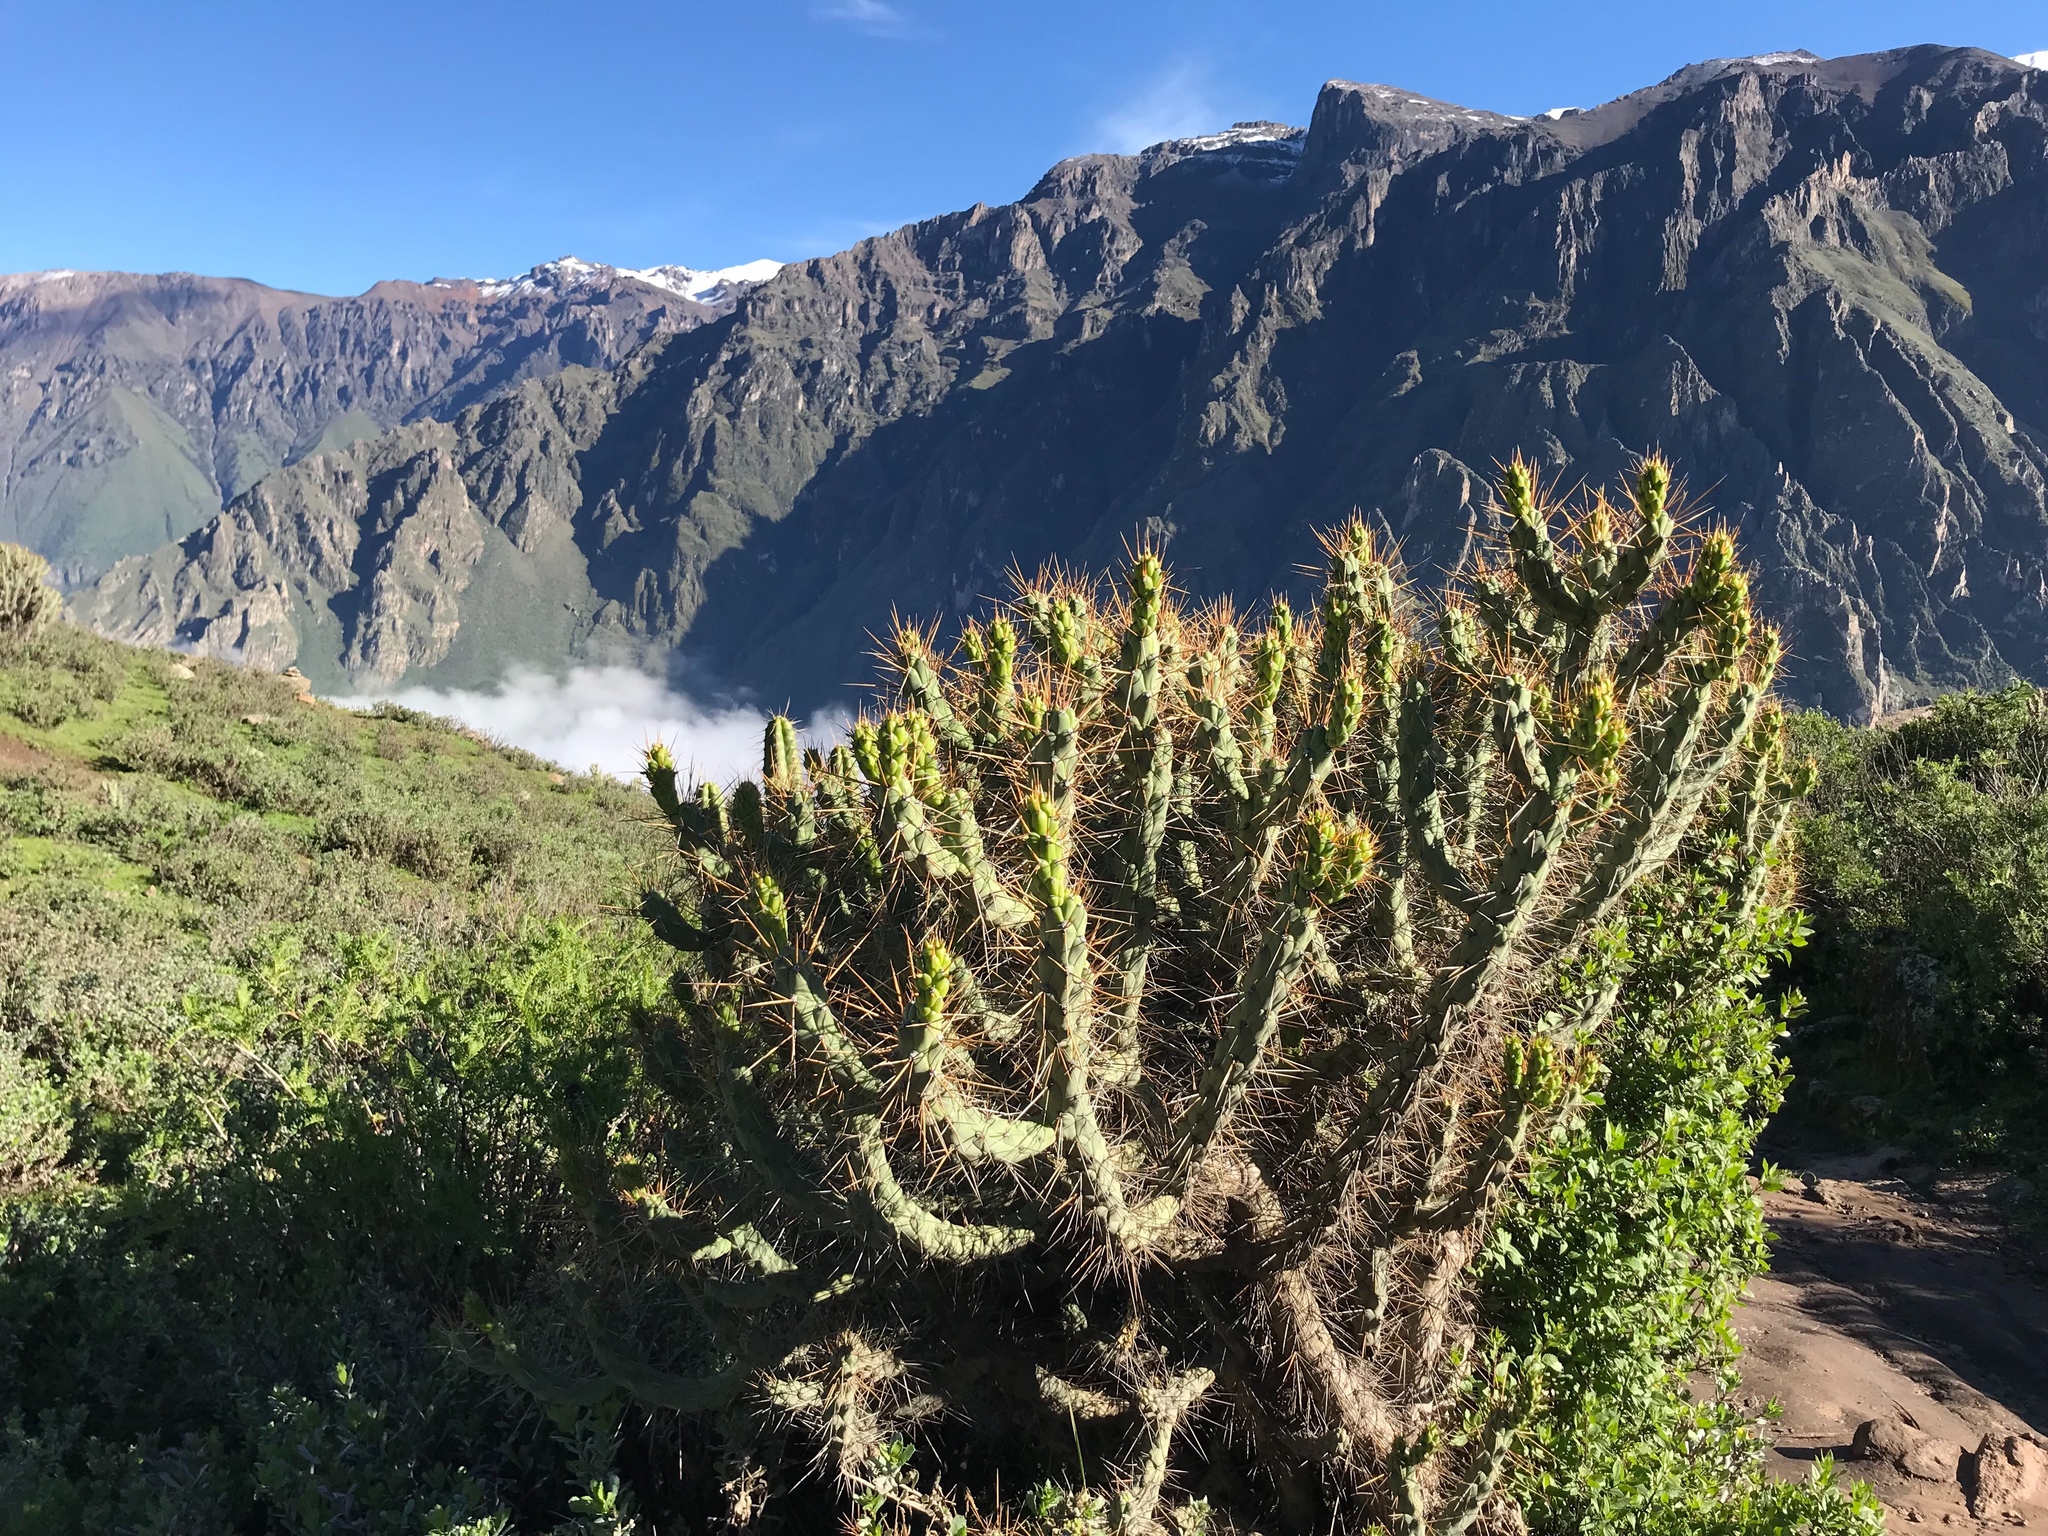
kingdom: Plantae
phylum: Tracheophyta
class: Magnoliopsida
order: Caryophyllales
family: Cactaceae
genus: Austrocylindropuntia
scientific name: Austrocylindropuntia subulata
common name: Eve's needle cactus
